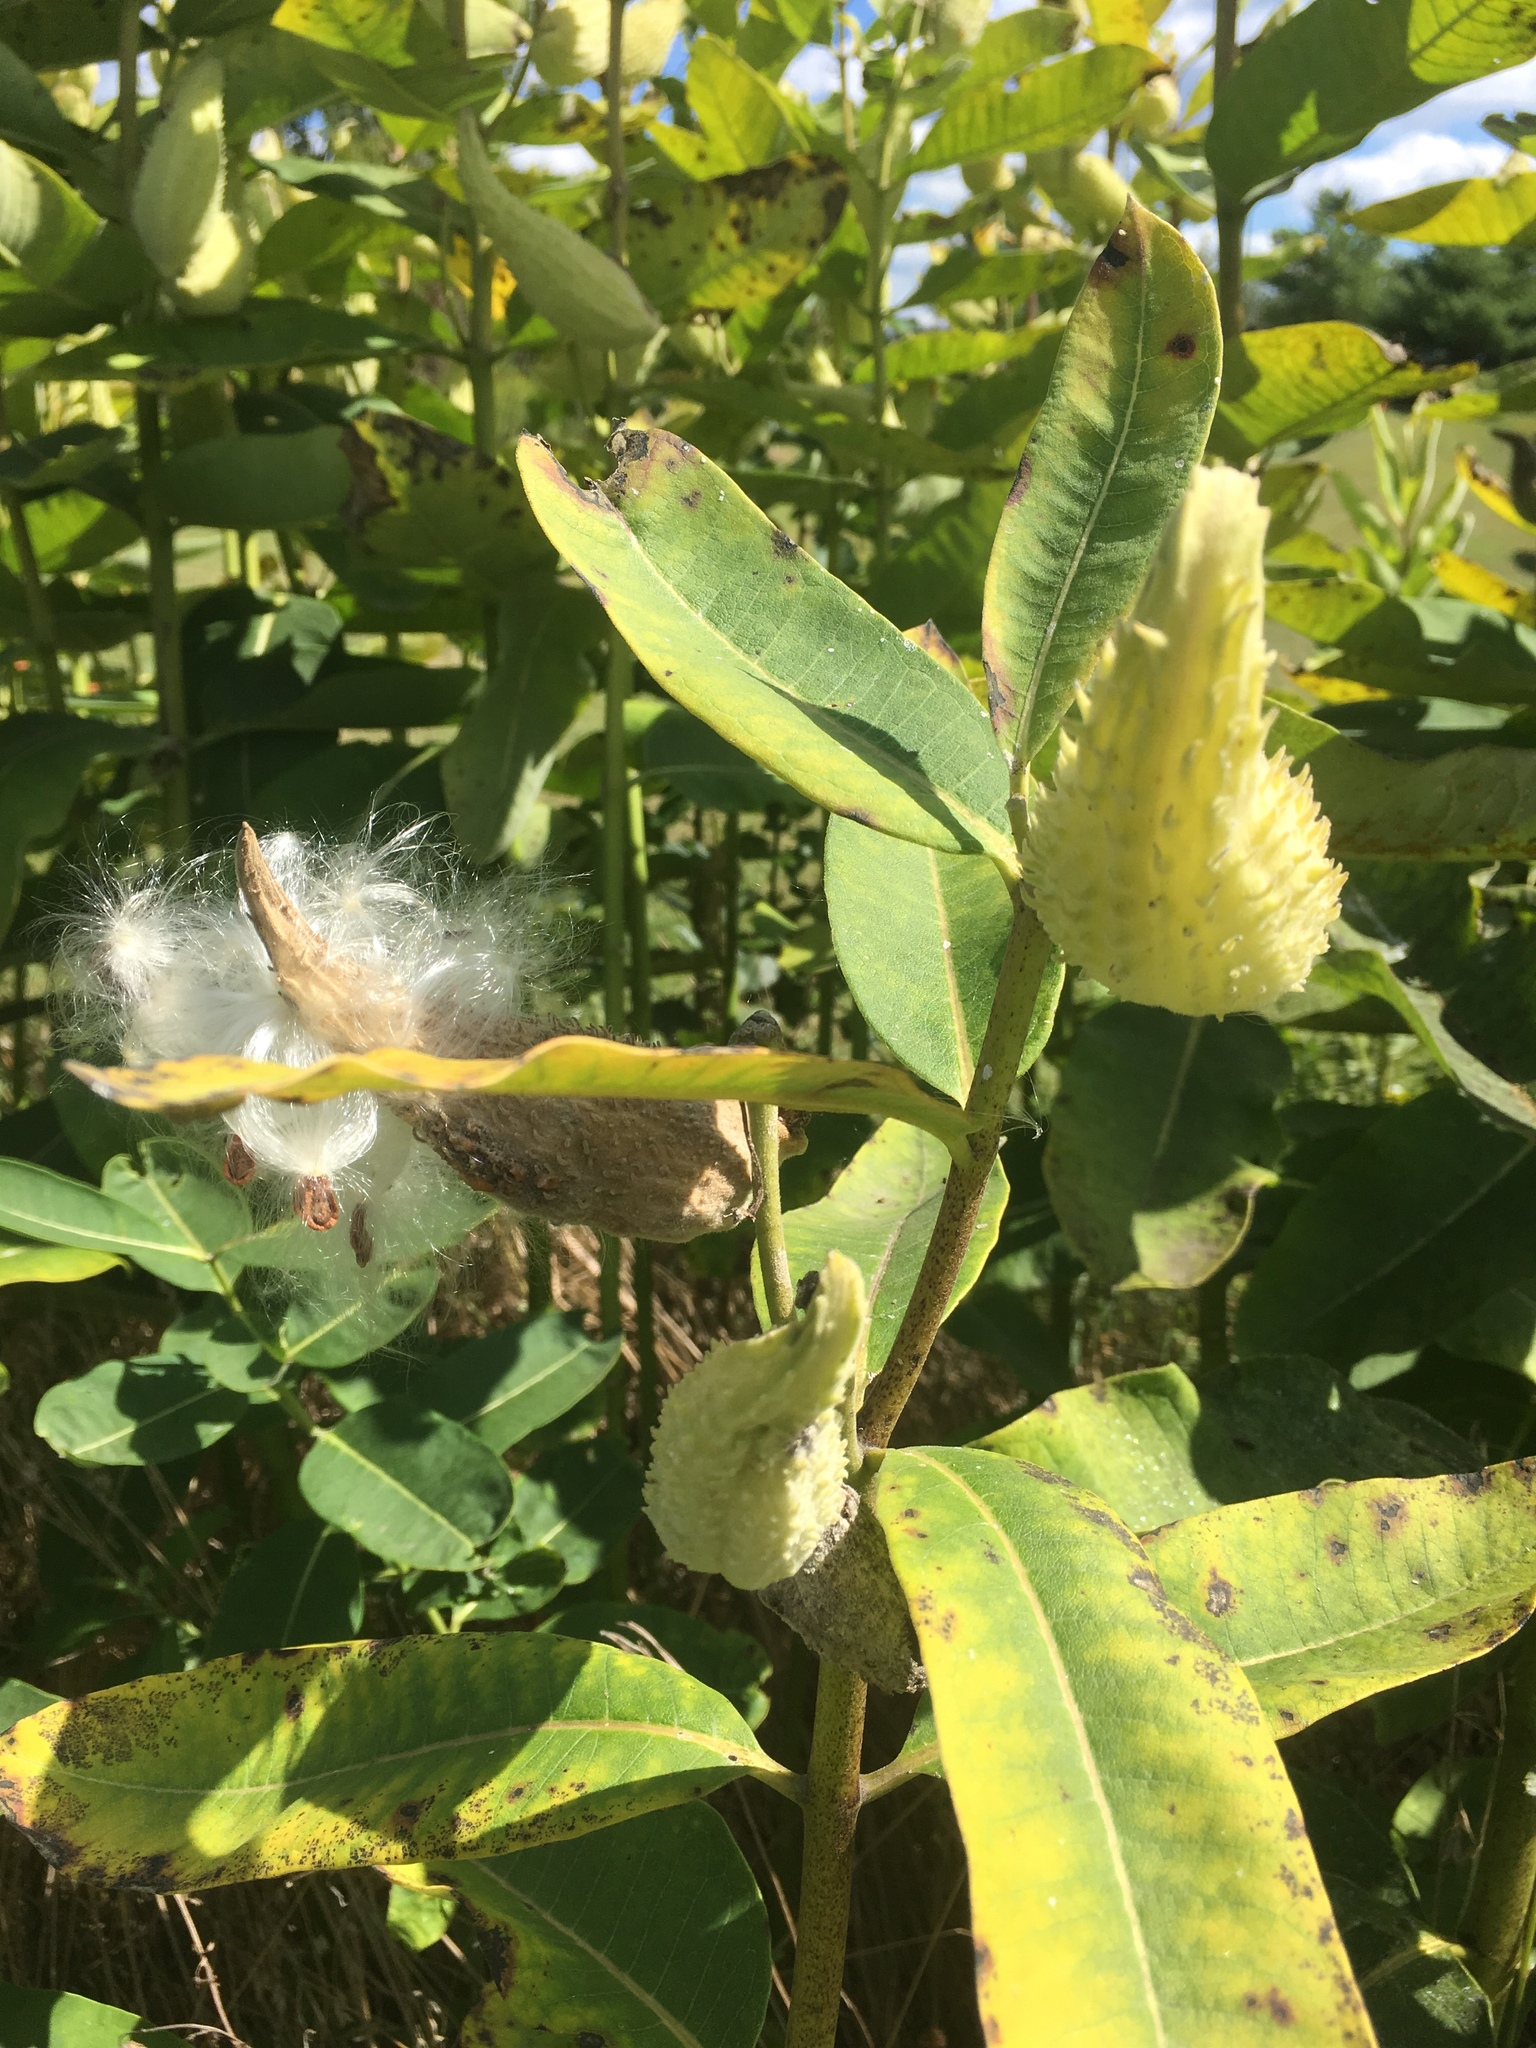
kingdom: Plantae
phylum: Tracheophyta
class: Magnoliopsida
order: Gentianales
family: Apocynaceae
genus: Asclepias
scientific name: Asclepias syriaca
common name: Common milkweed
